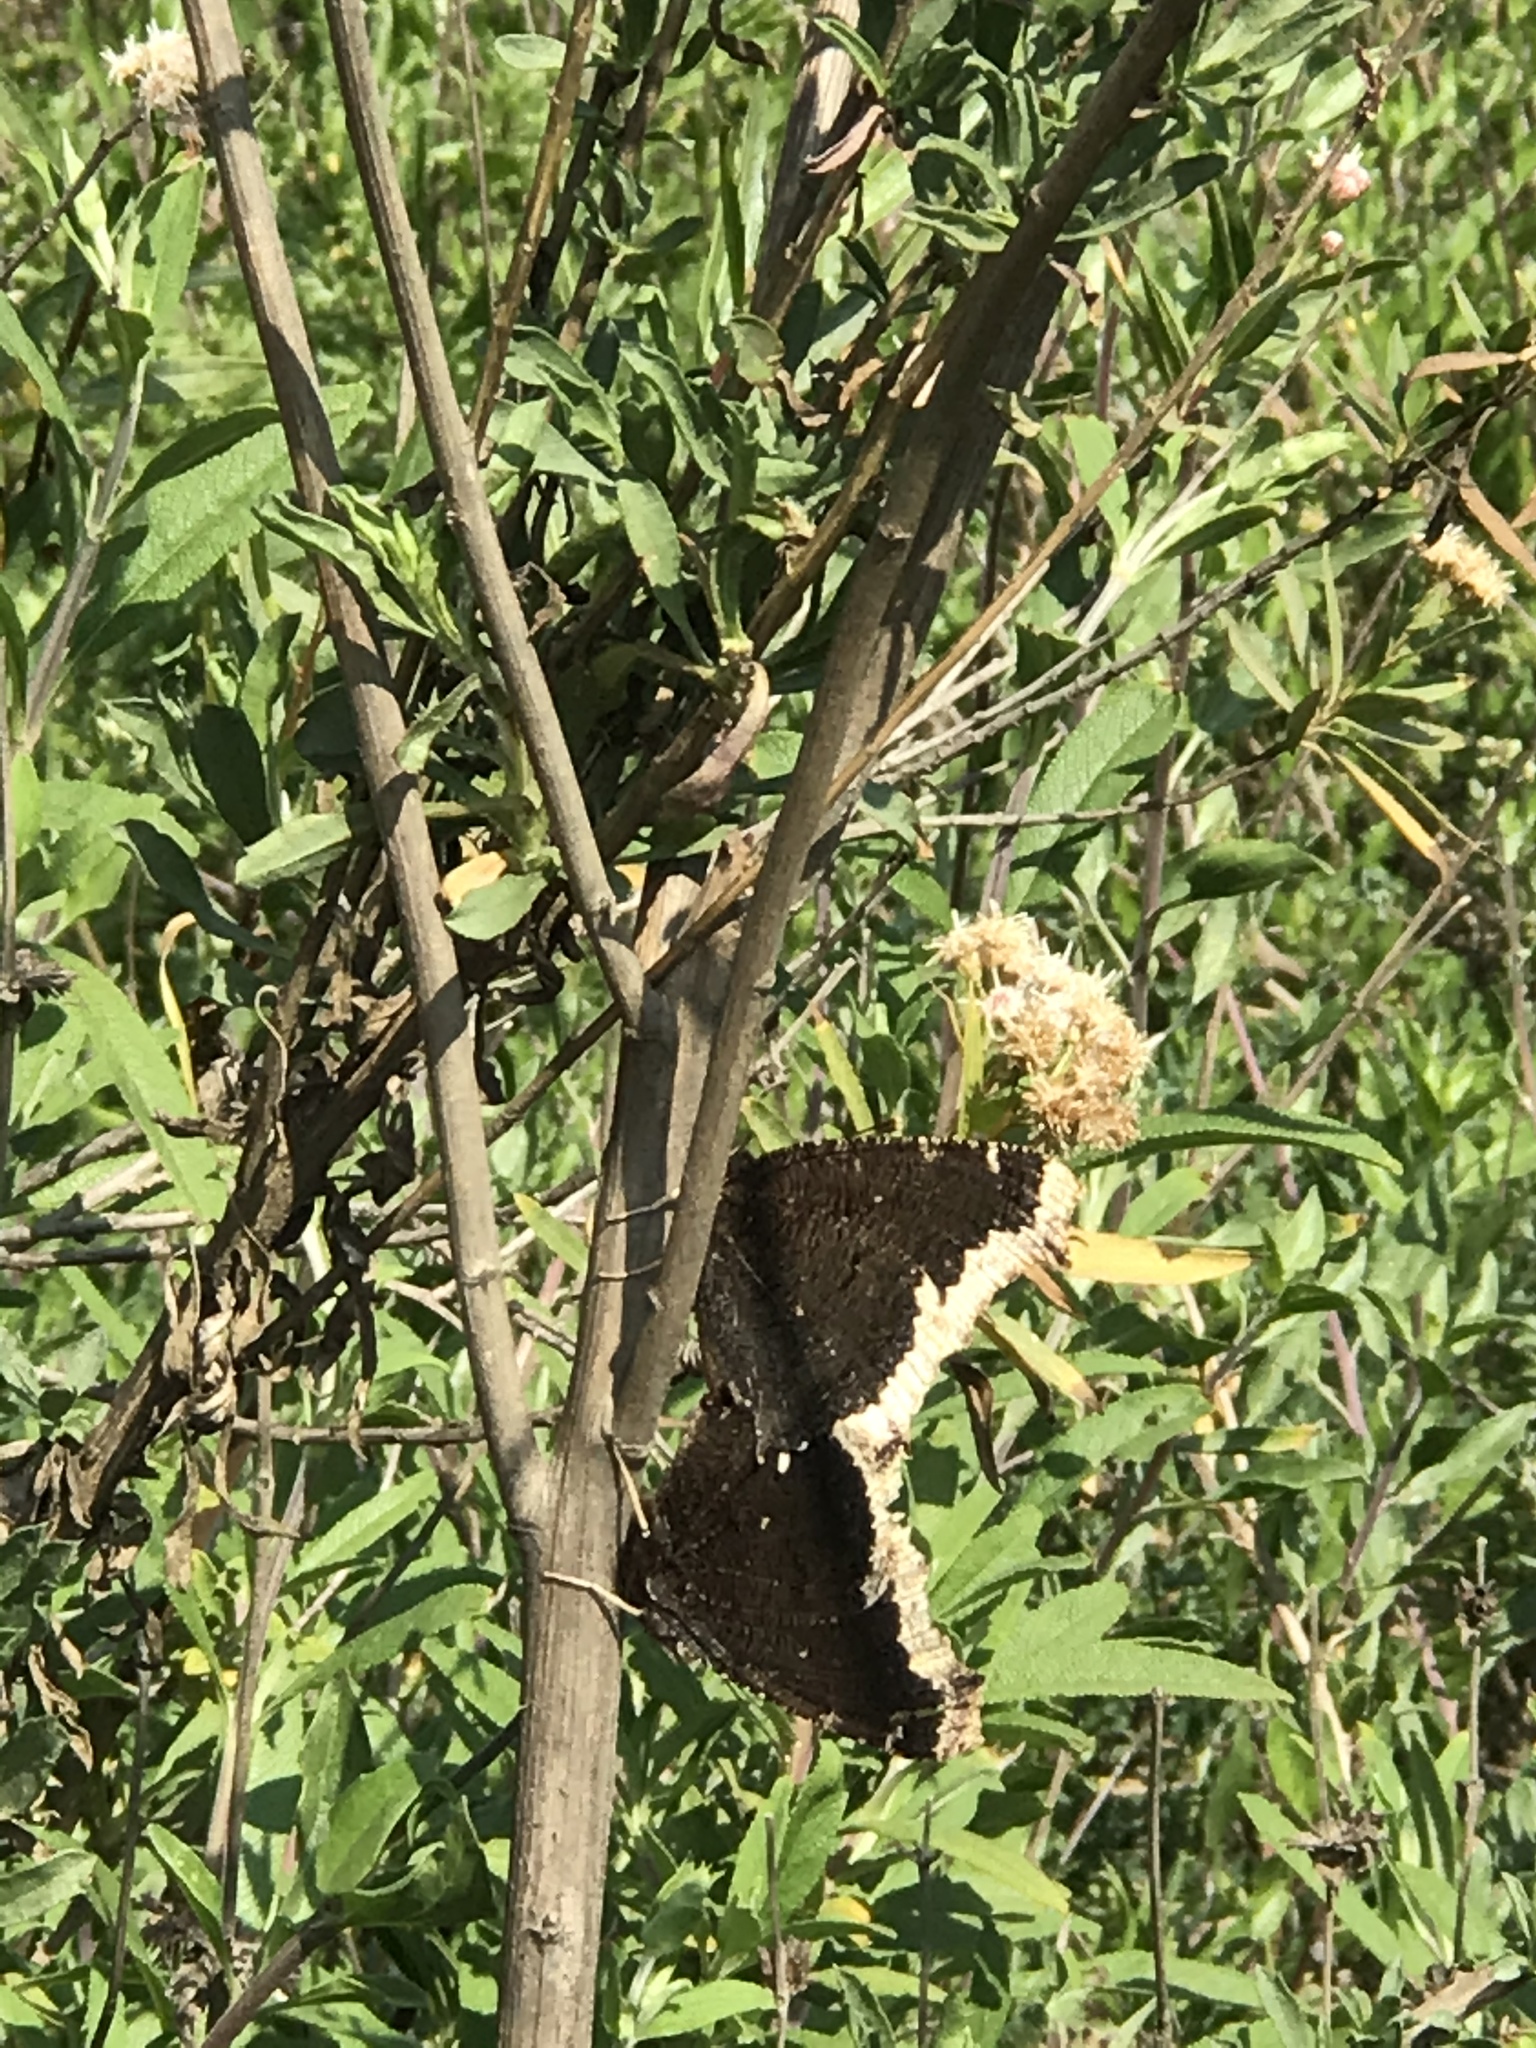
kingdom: Animalia
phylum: Arthropoda
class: Insecta
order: Lepidoptera
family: Nymphalidae
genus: Nymphalis
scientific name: Nymphalis antiopa
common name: Camberwell beauty
